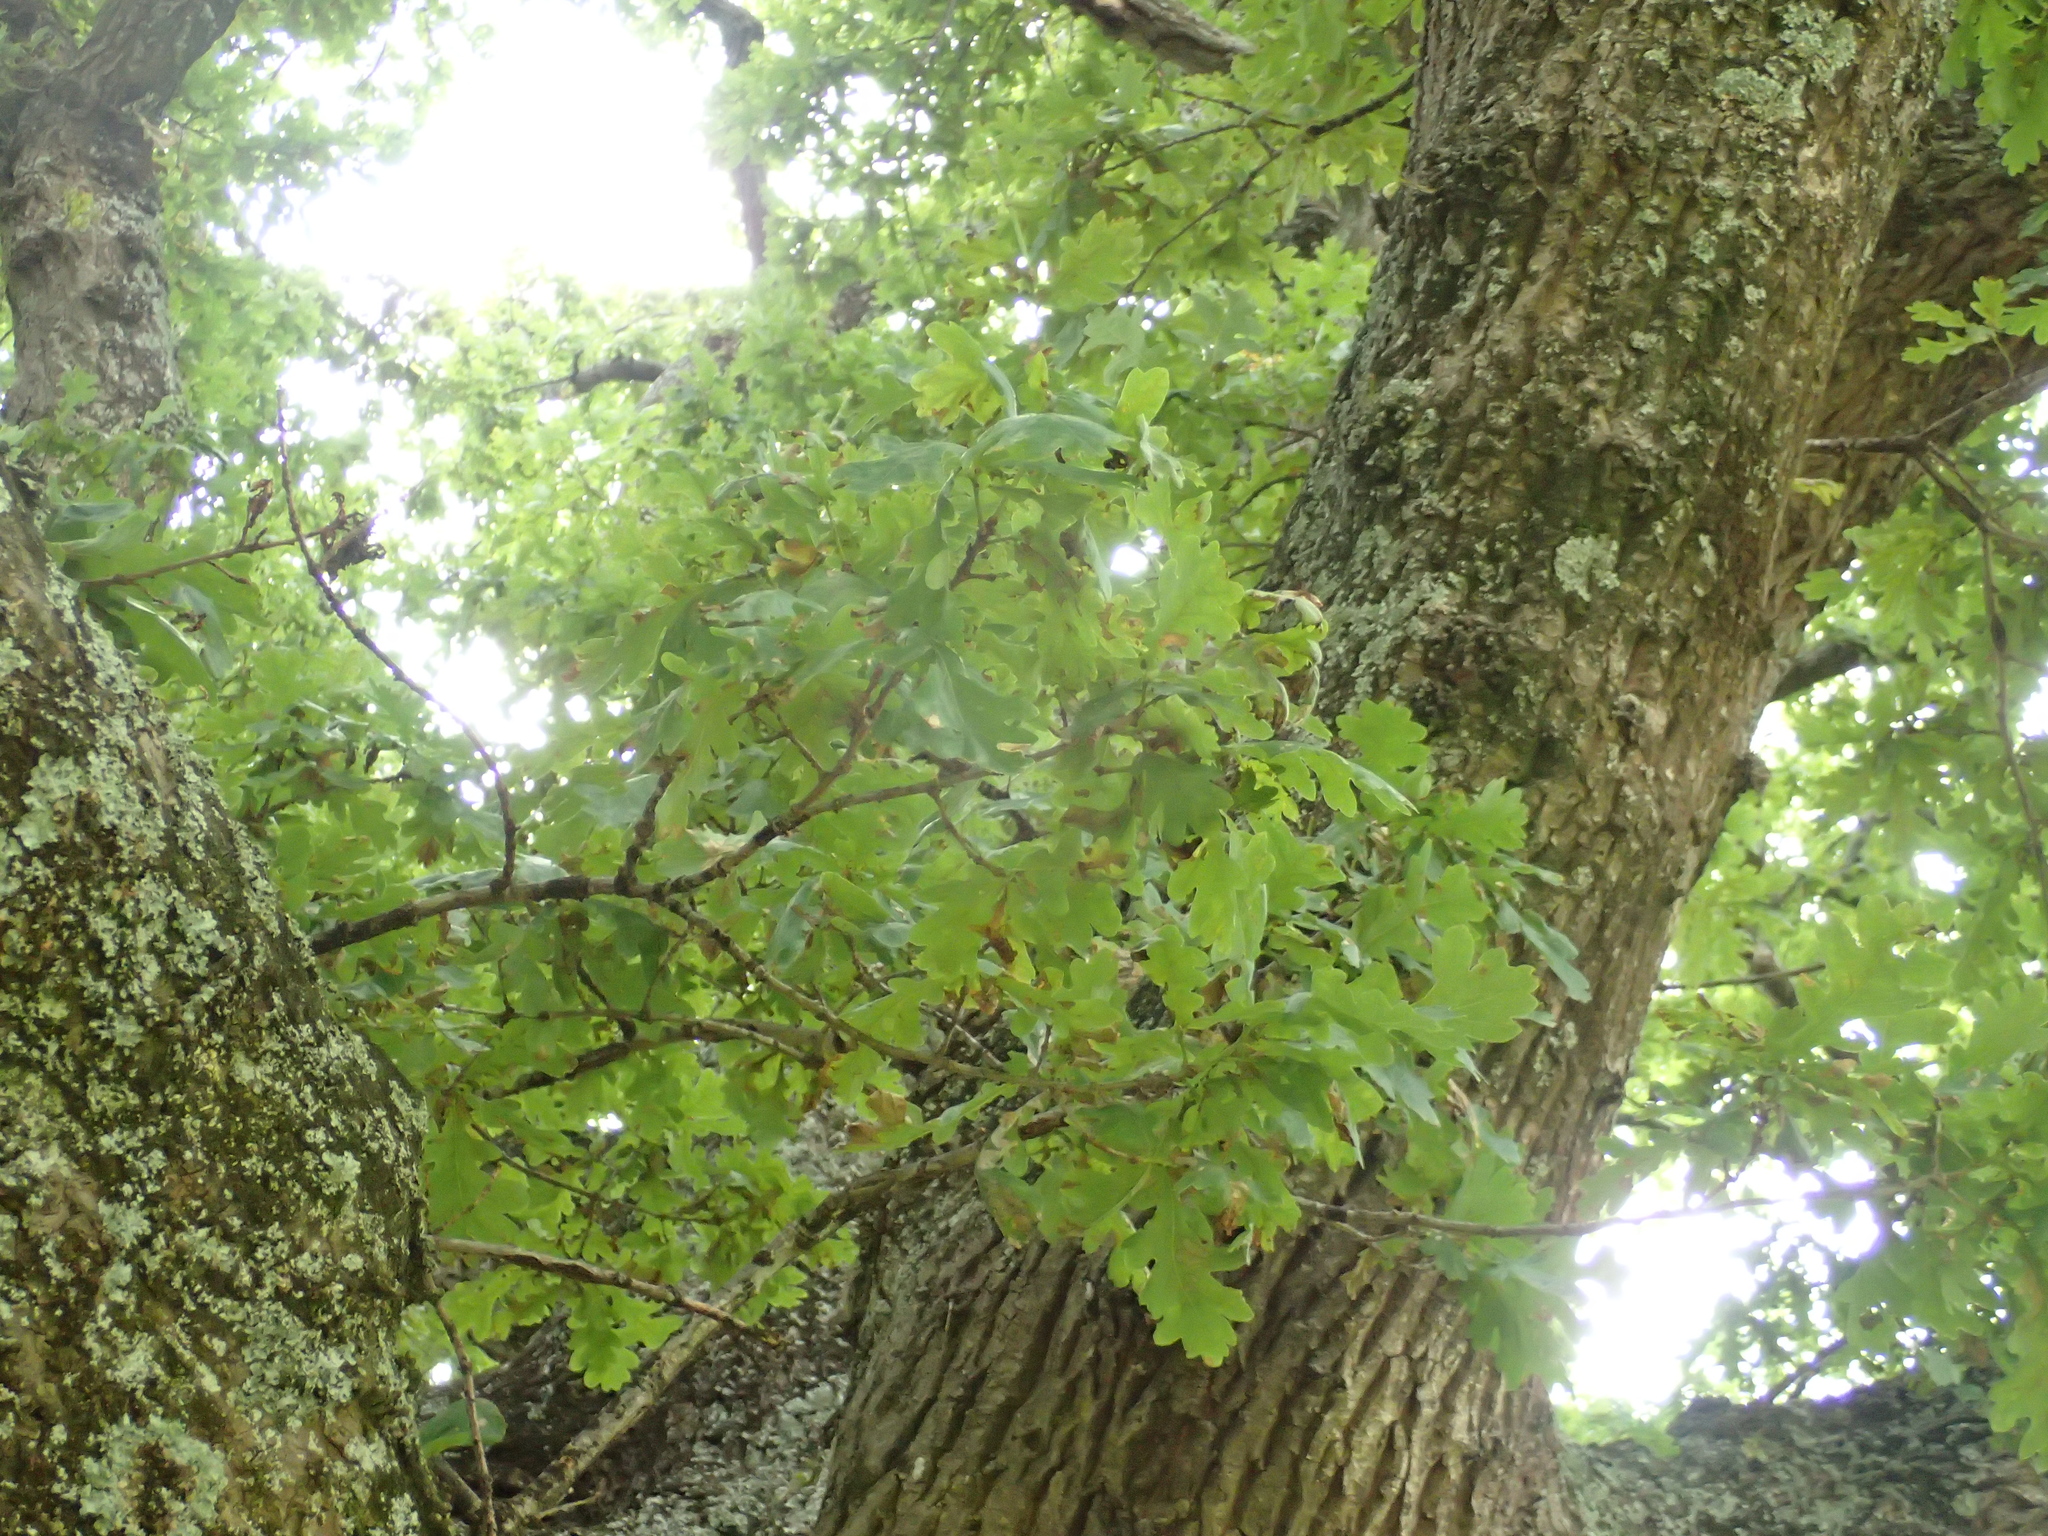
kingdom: Plantae
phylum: Tracheophyta
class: Magnoliopsida
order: Fagales
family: Fagaceae
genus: Quercus
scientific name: Quercus robur
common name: Pedunculate oak
